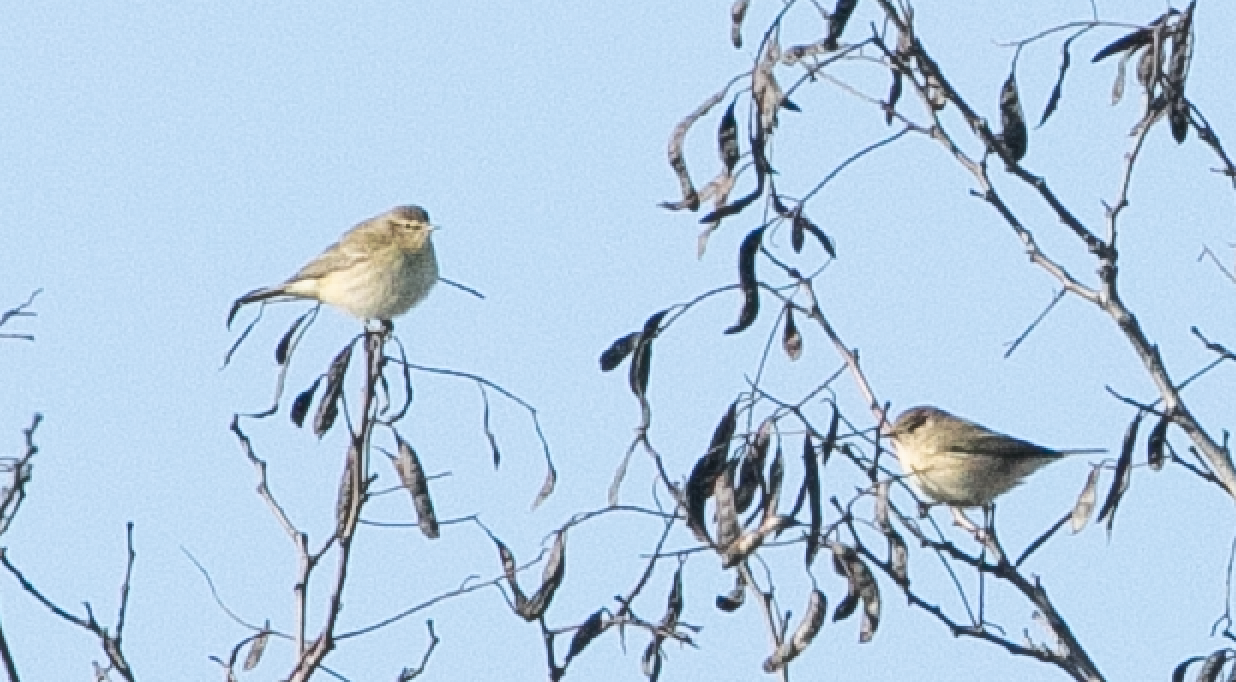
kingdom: Animalia
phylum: Chordata
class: Aves
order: Passeriformes
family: Phylloscopidae
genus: Phylloscopus
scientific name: Phylloscopus collybita
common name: Common chiffchaff
